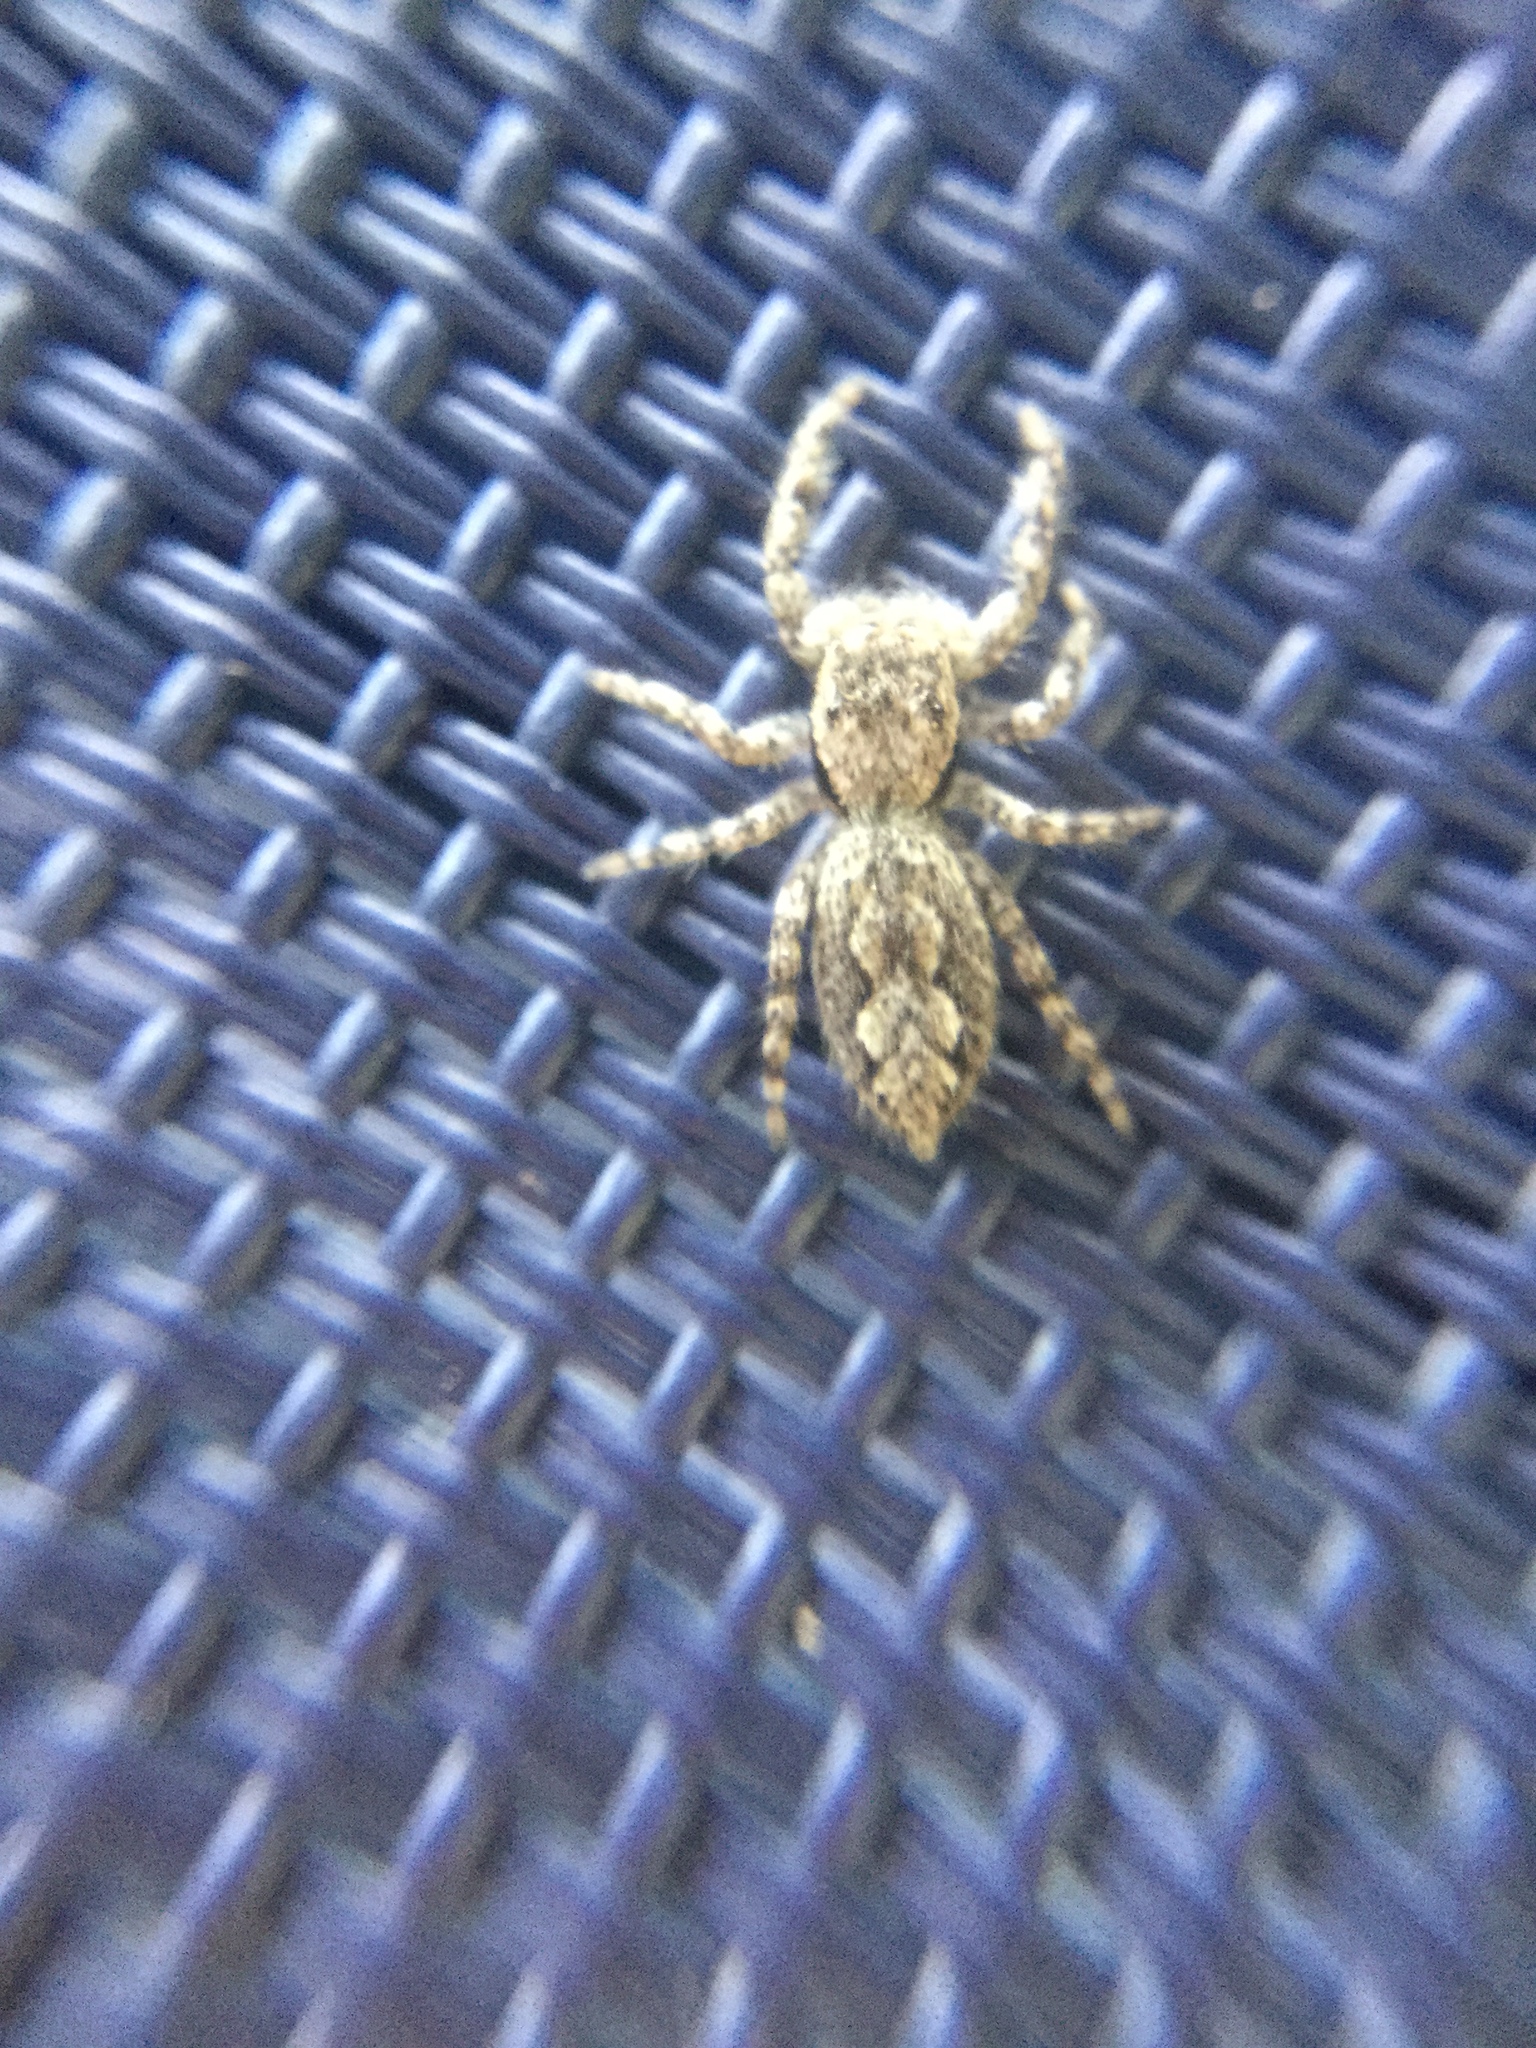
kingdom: Animalia
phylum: Arthropoda
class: Arachnida
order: Araneae
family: Salticidae
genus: Platycryptus
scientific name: Platycryptus undatus
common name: Tan jumping spider
